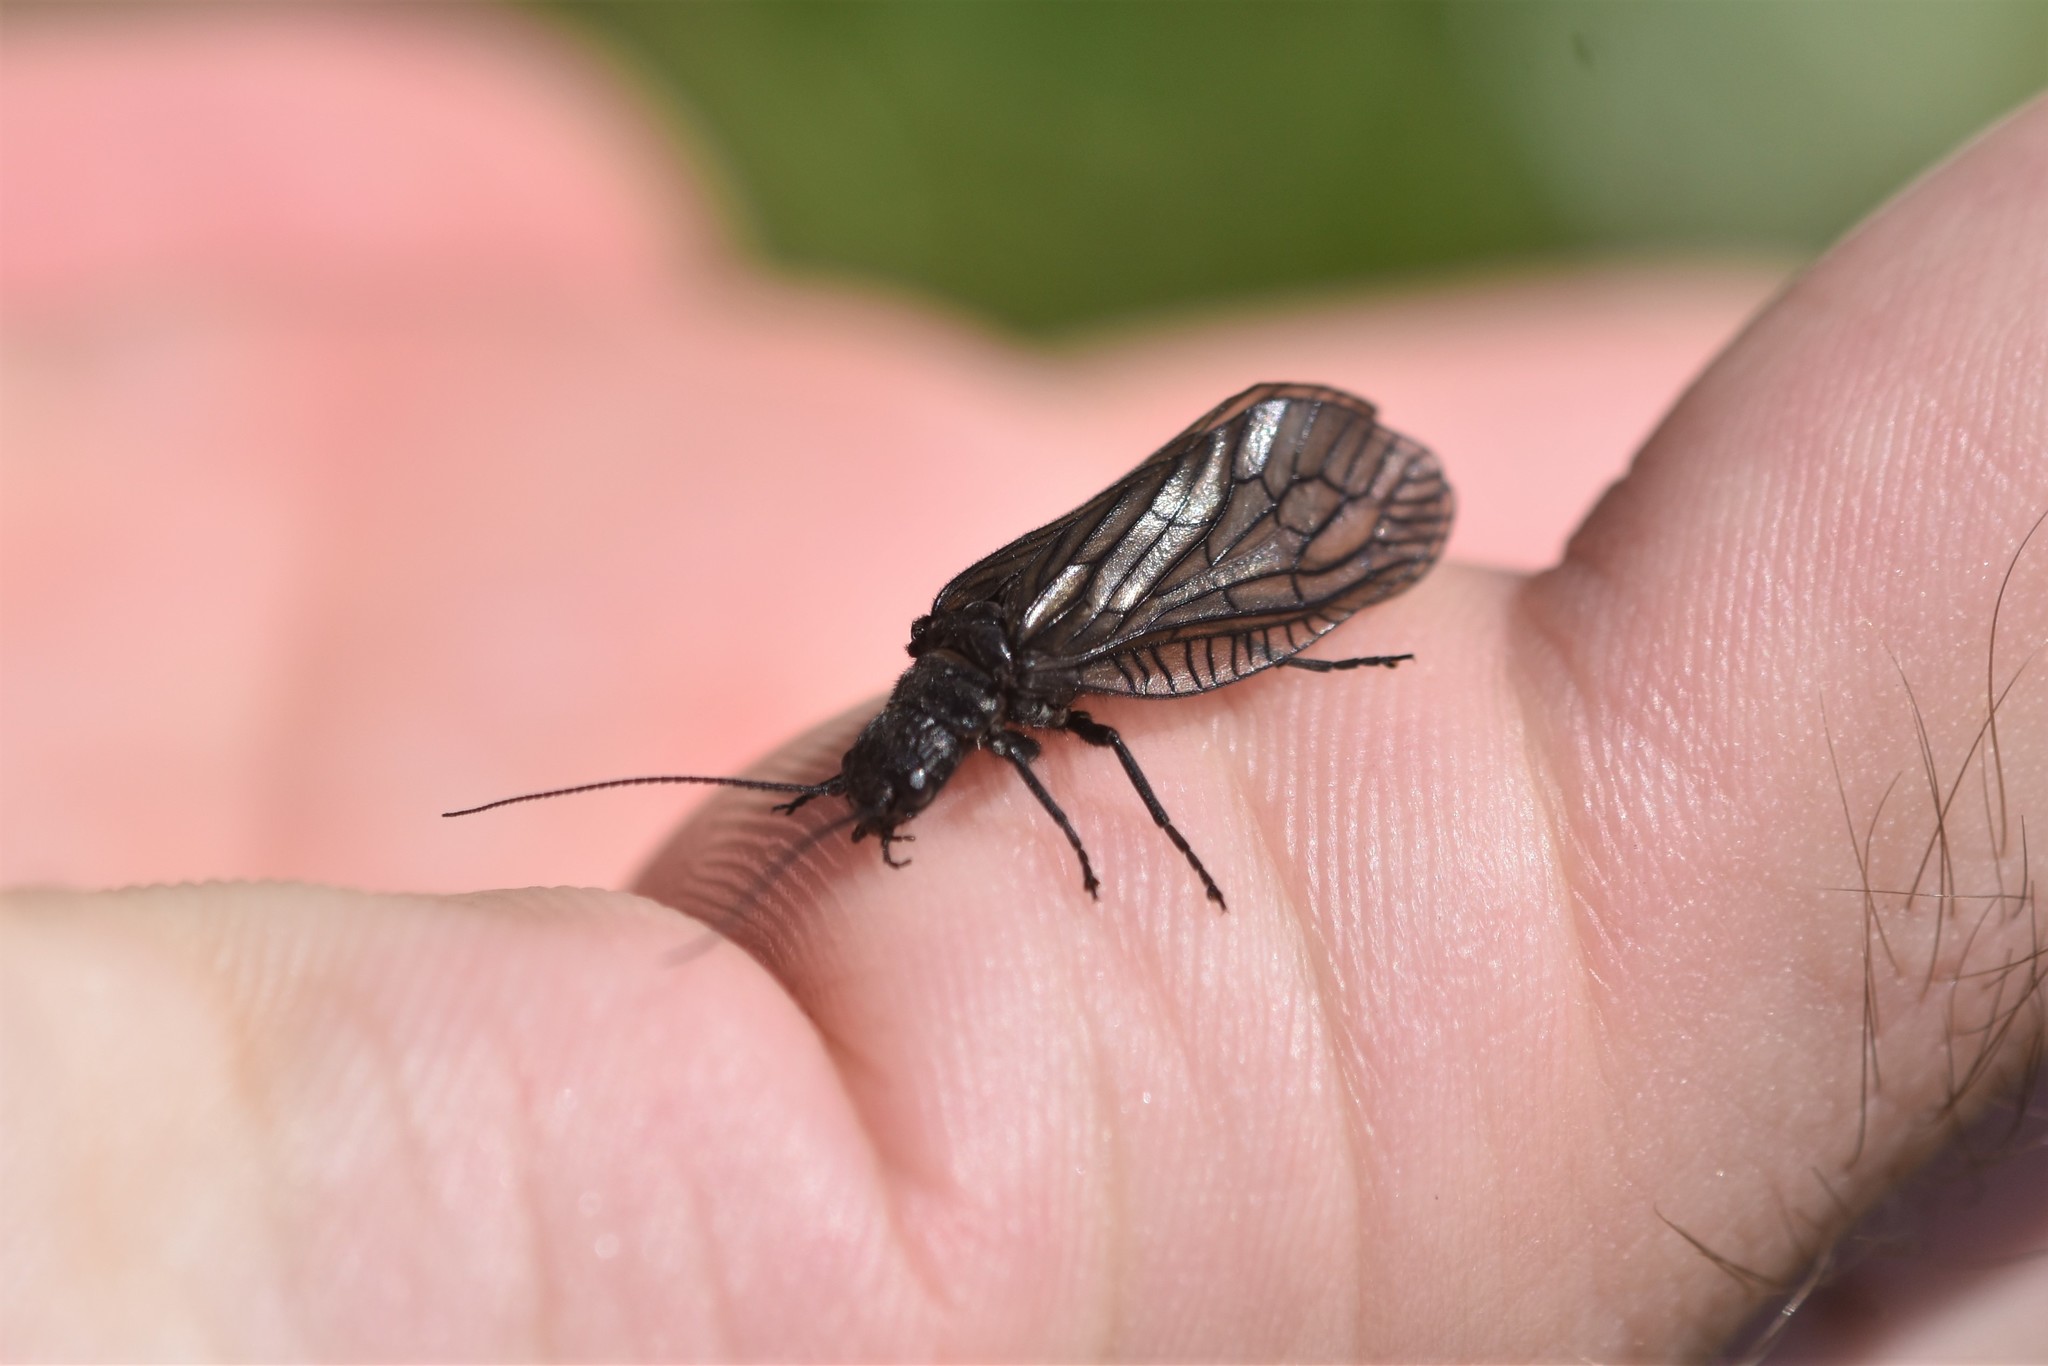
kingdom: Animalia
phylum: Arthropoda
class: Insecta
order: Megaloptera
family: Sialidae
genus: Sialis
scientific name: Sialis
